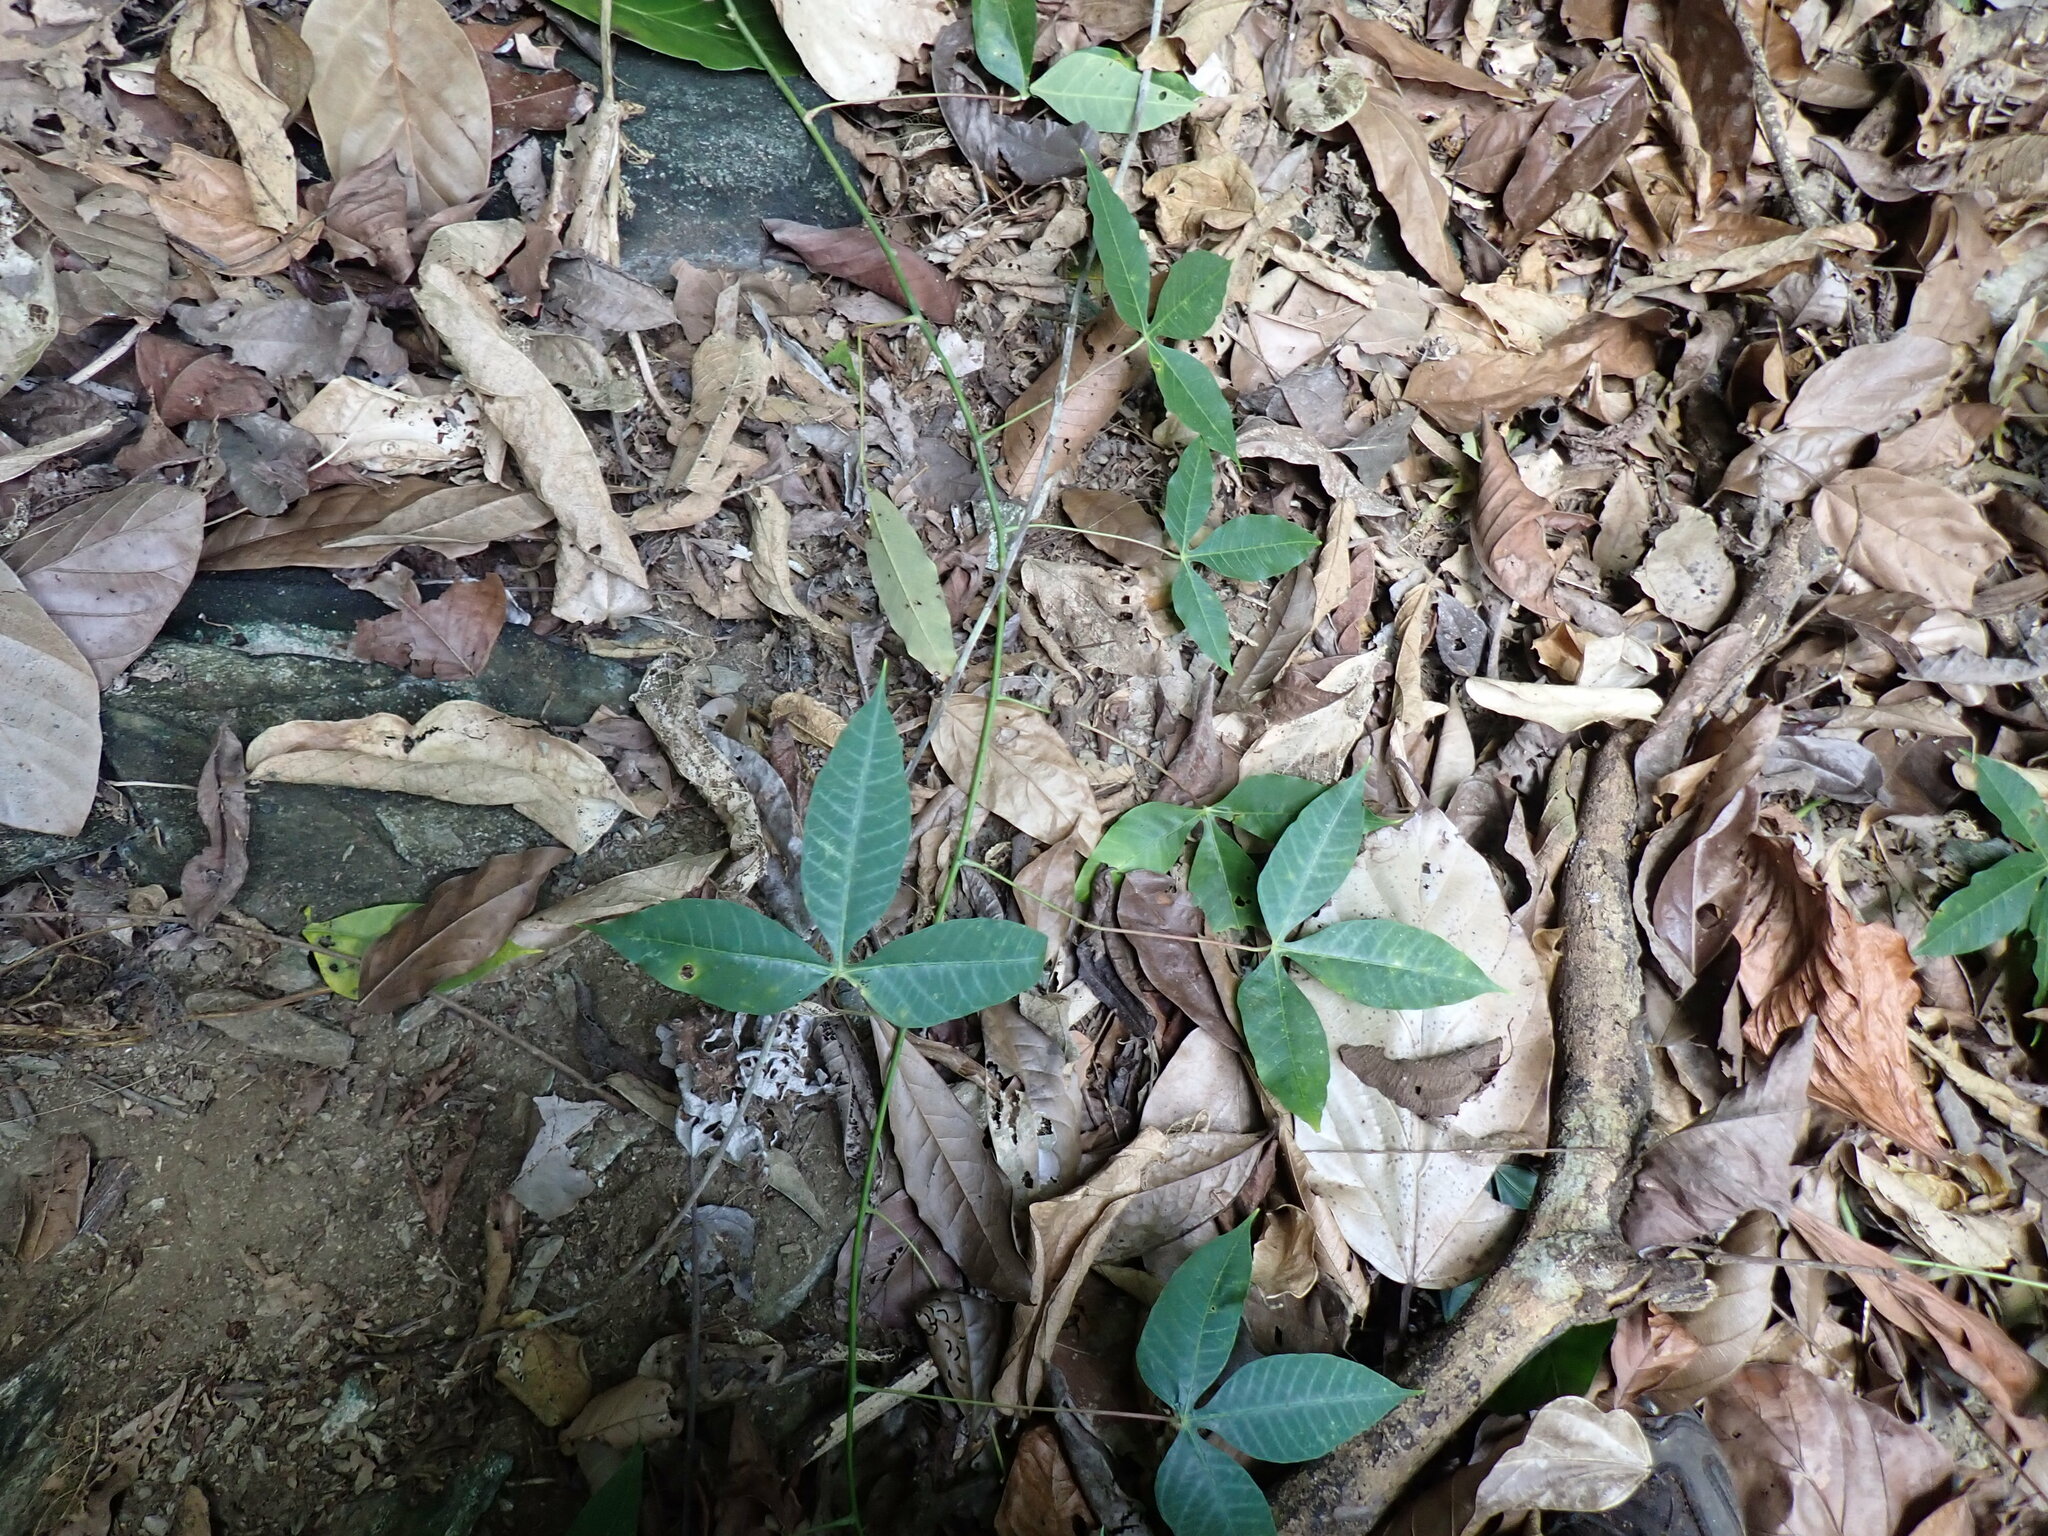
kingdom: Plantae
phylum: Tracheophyta
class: Magnoliopsida
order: Malpighiales
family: Euphorbiaceae
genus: Manihot
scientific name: Manihot brachyloba
